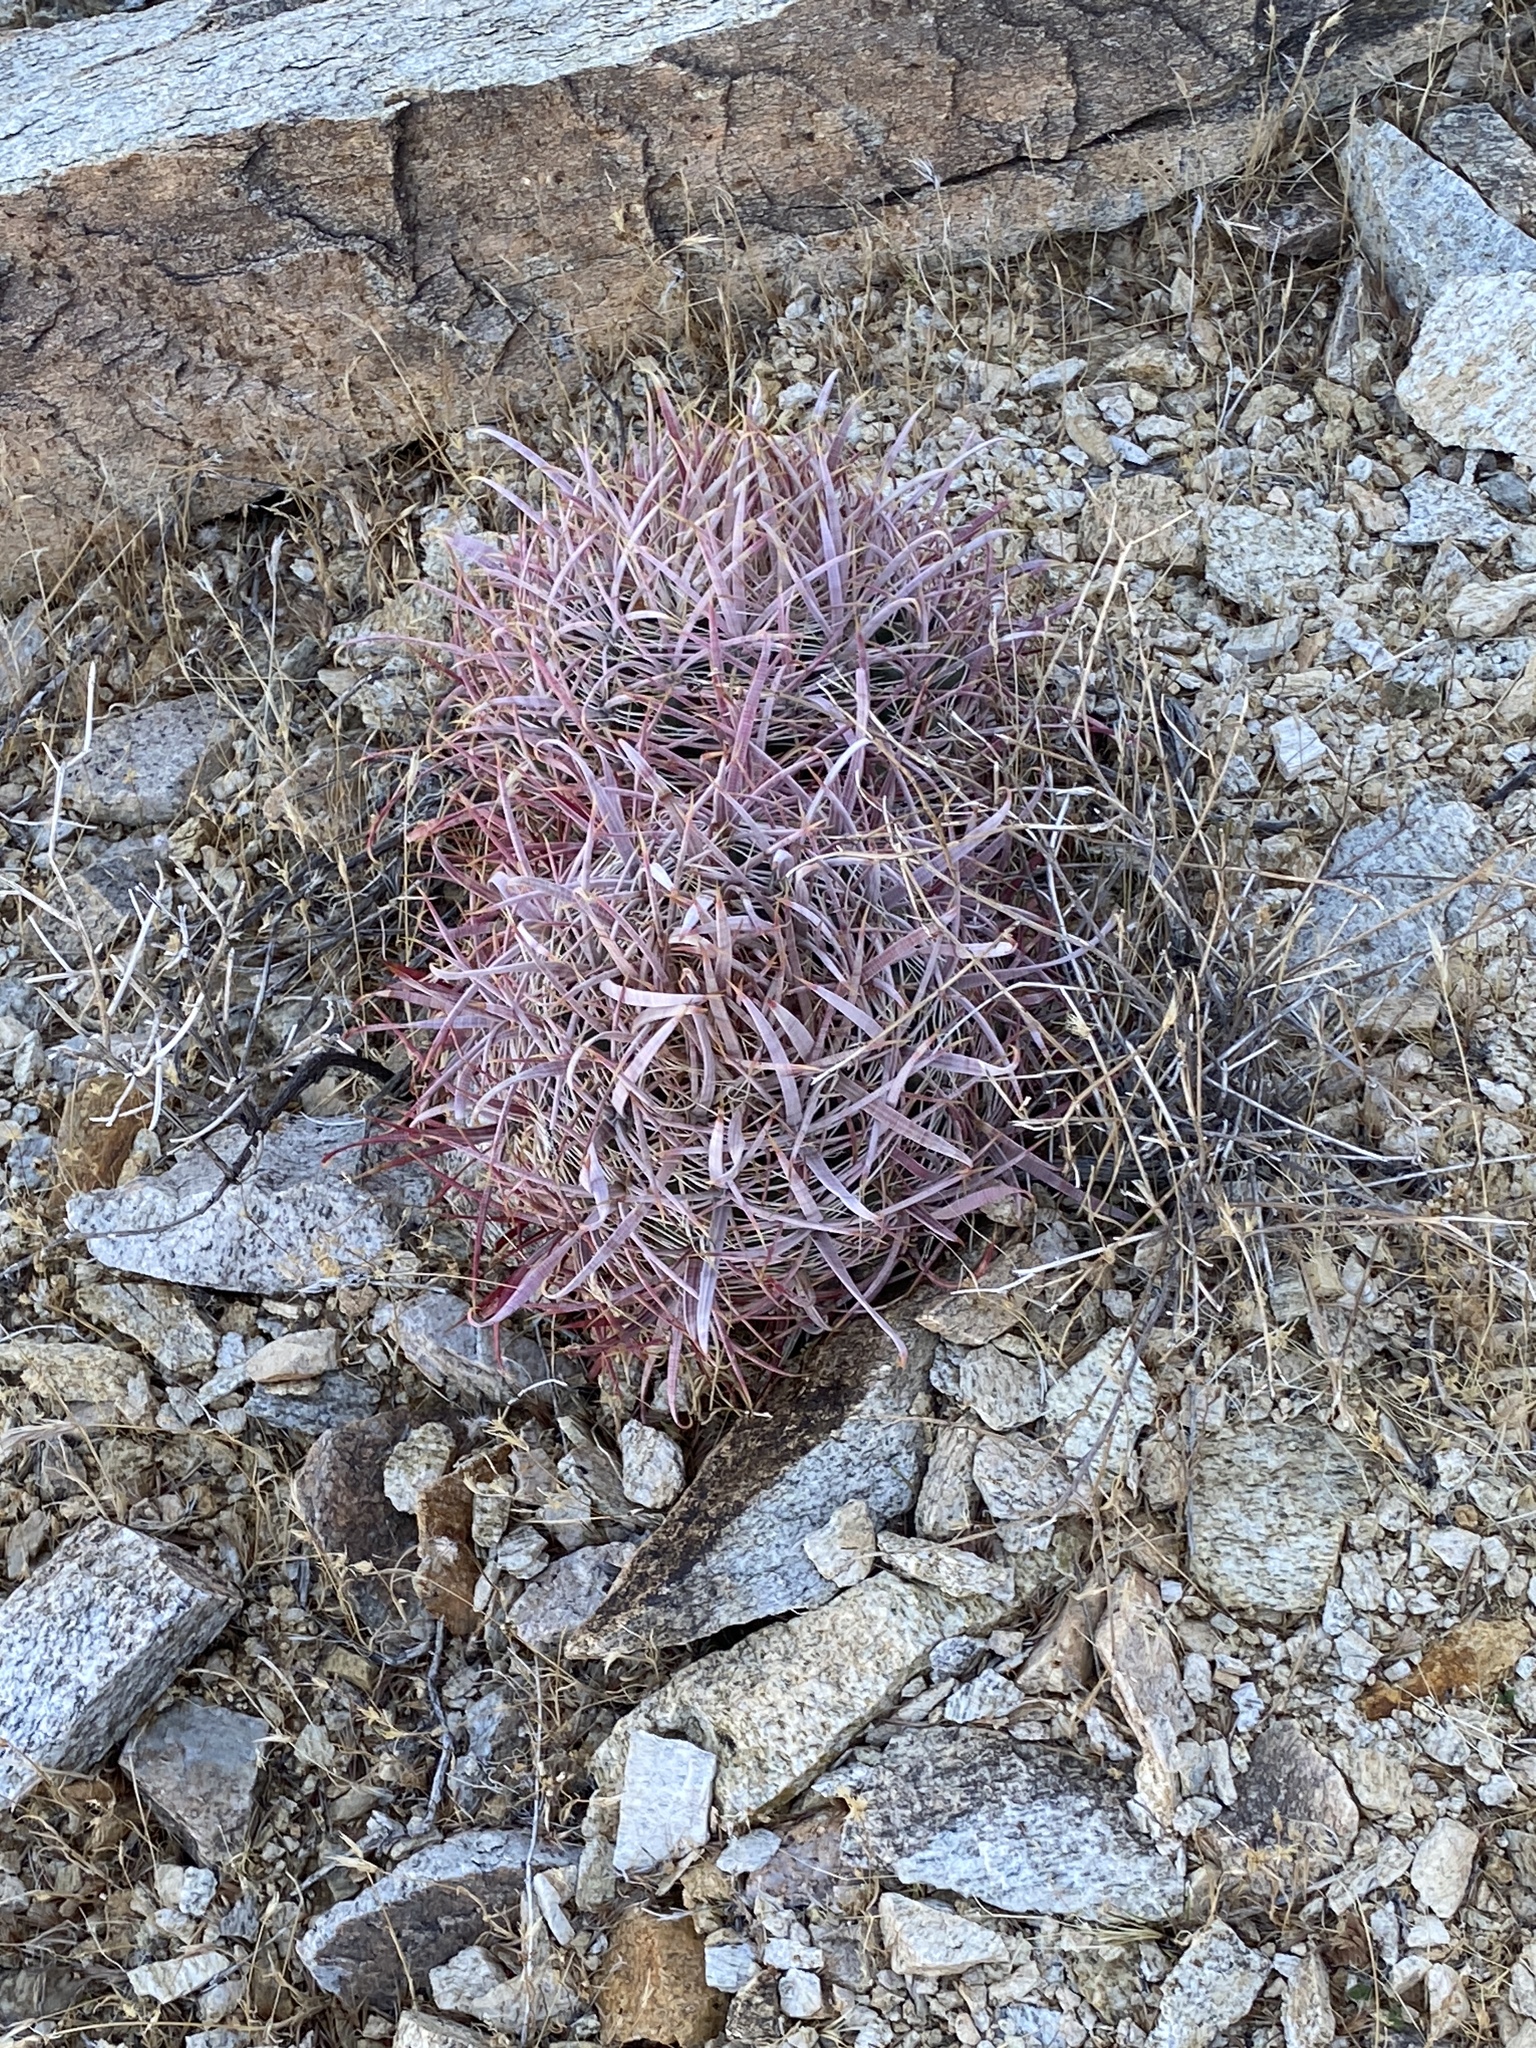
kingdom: Plantae
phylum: Tracheophyta
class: Magnoliopsida
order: Caryophyllales
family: Cactaceae
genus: Ferocactus
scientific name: Ferocactus cylindraceus
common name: California barrel cactus
